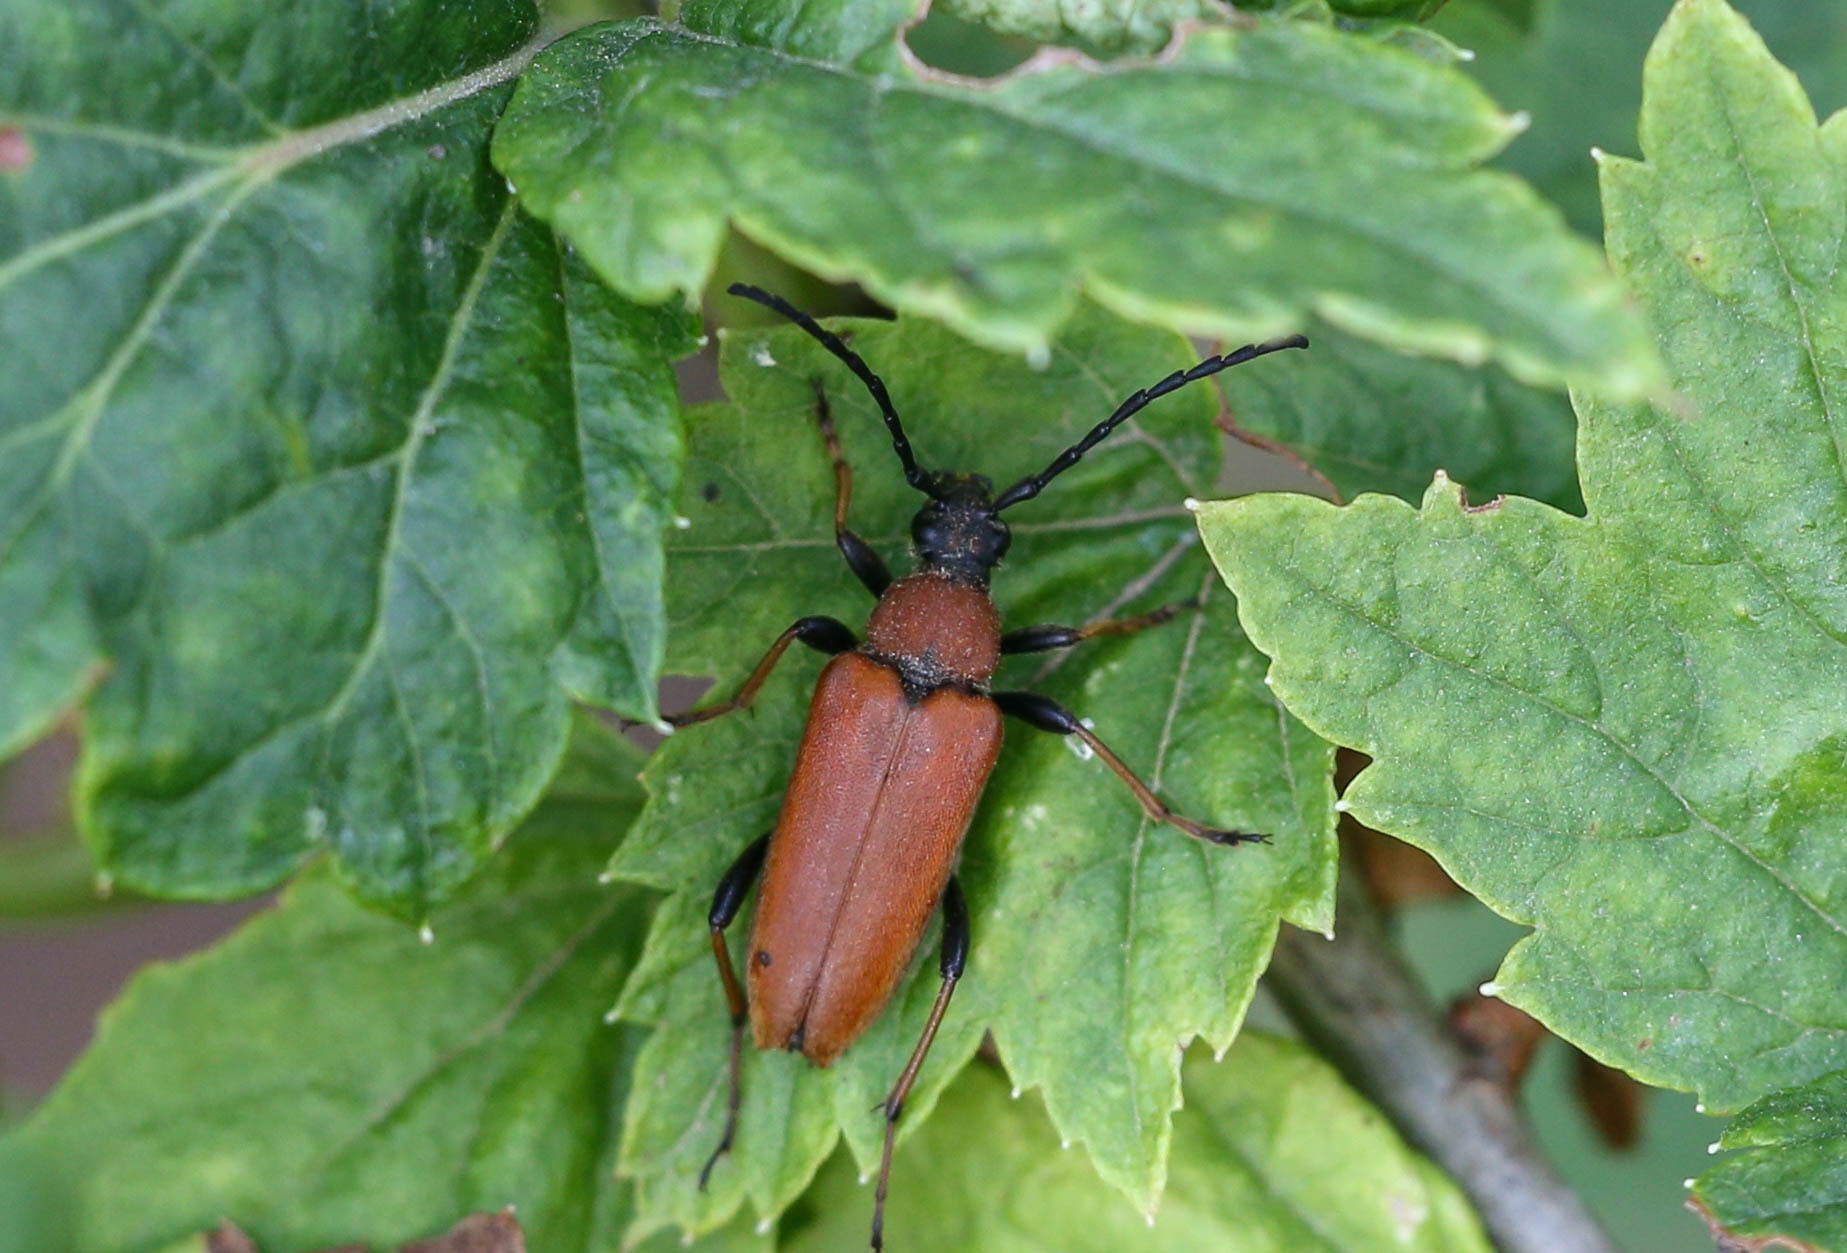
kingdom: Animalia
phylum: Arthropoda
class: Insecta
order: Coleoptera
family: Cerambycidae
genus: Stictoleptura
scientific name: Stictoleptura rubra
